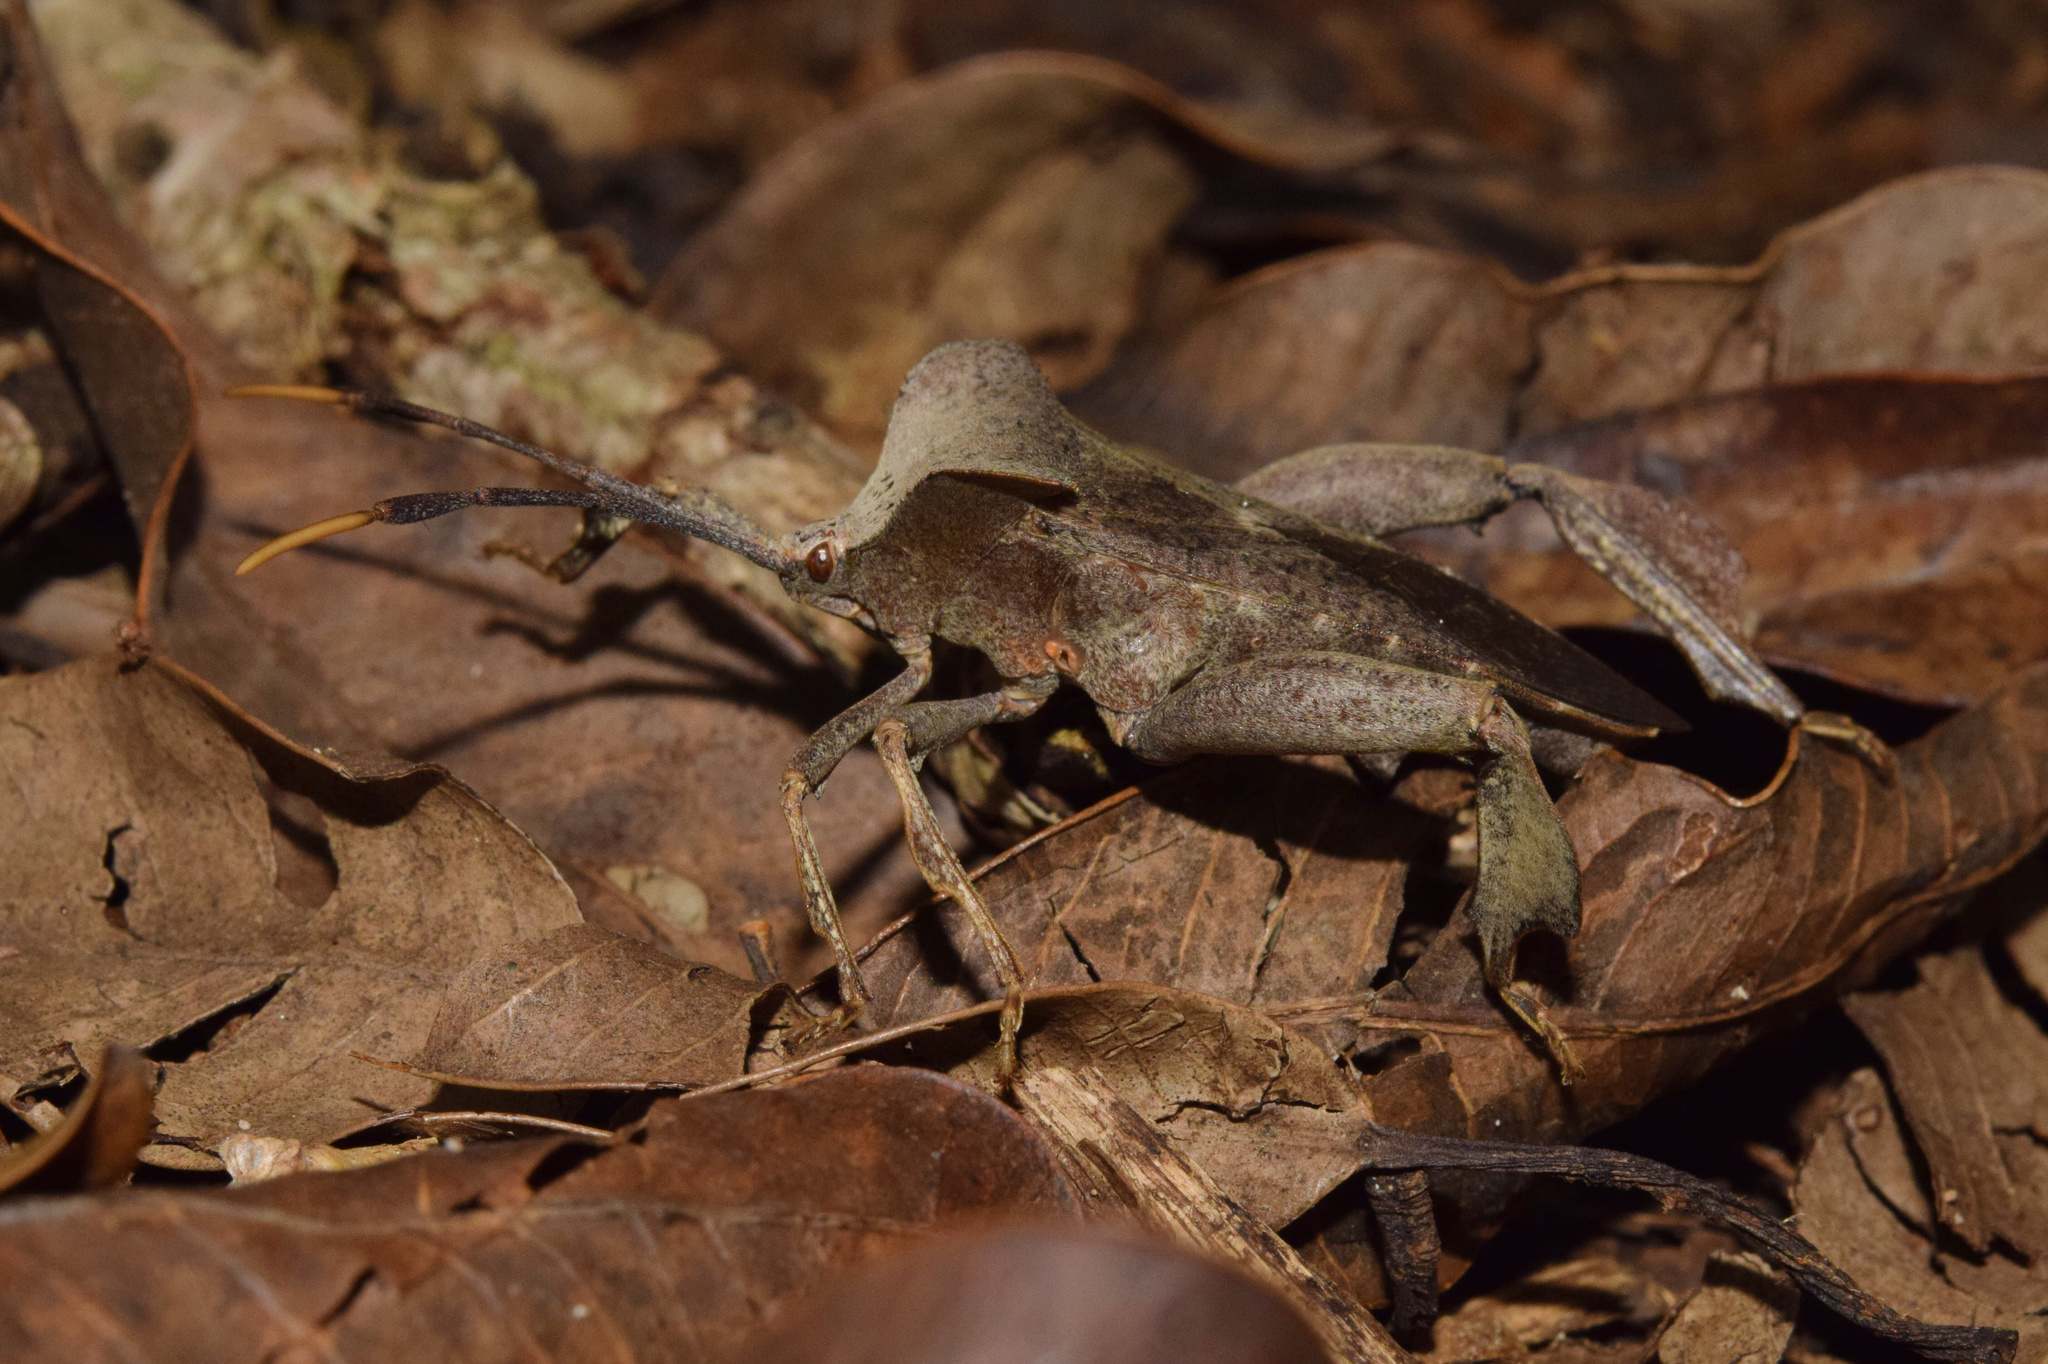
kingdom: Animalia
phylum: Arthropoda
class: Insecta
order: Hemiptera
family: Coreidae
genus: Phyllogonia
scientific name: Phyllogonia limosa
